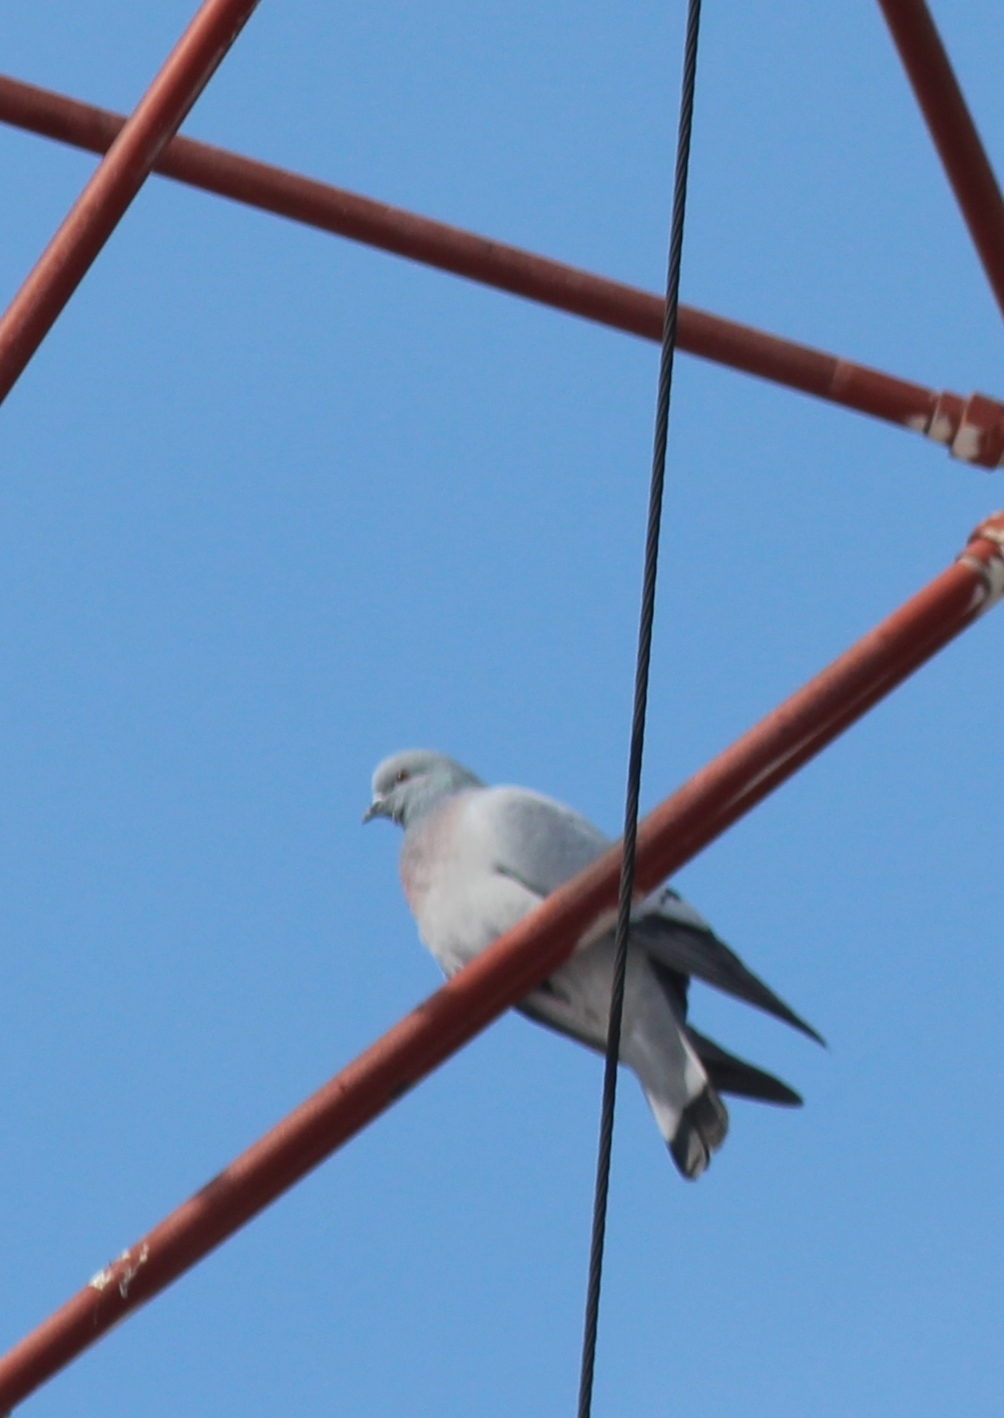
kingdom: Animalia
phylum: Chordata
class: Aves
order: Columbiformes
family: Columbidae
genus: Columba
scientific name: Columba rupestris
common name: Hill pigeon
